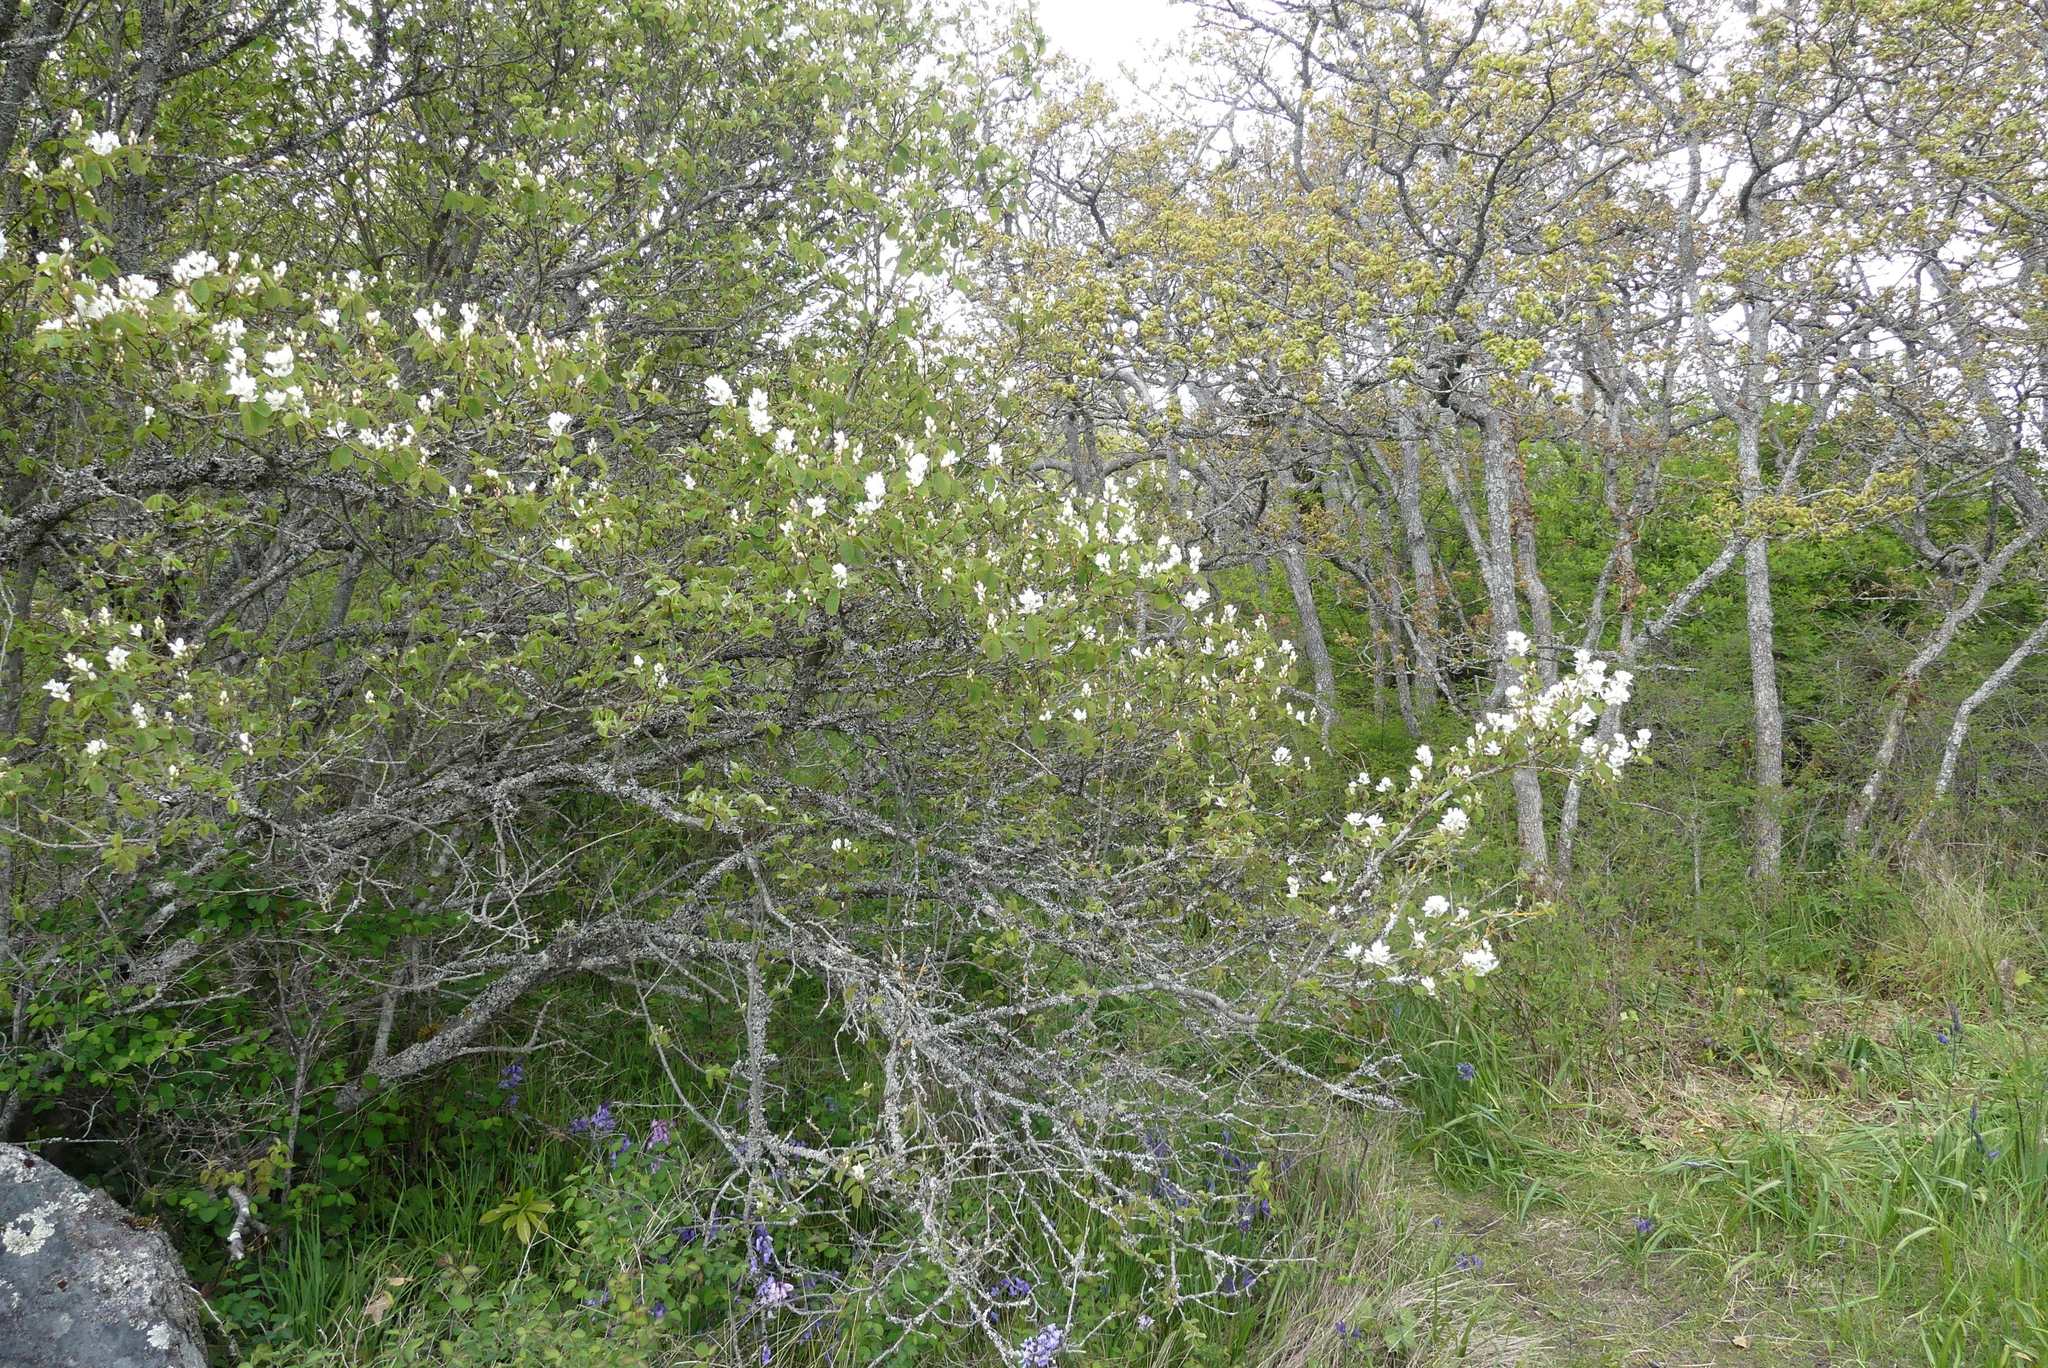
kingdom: Plantae
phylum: Tracheophyta
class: Magnoliopsida
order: Rosales
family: Rosaceae
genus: Amelanchier
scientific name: Amelanchier alnifolia
